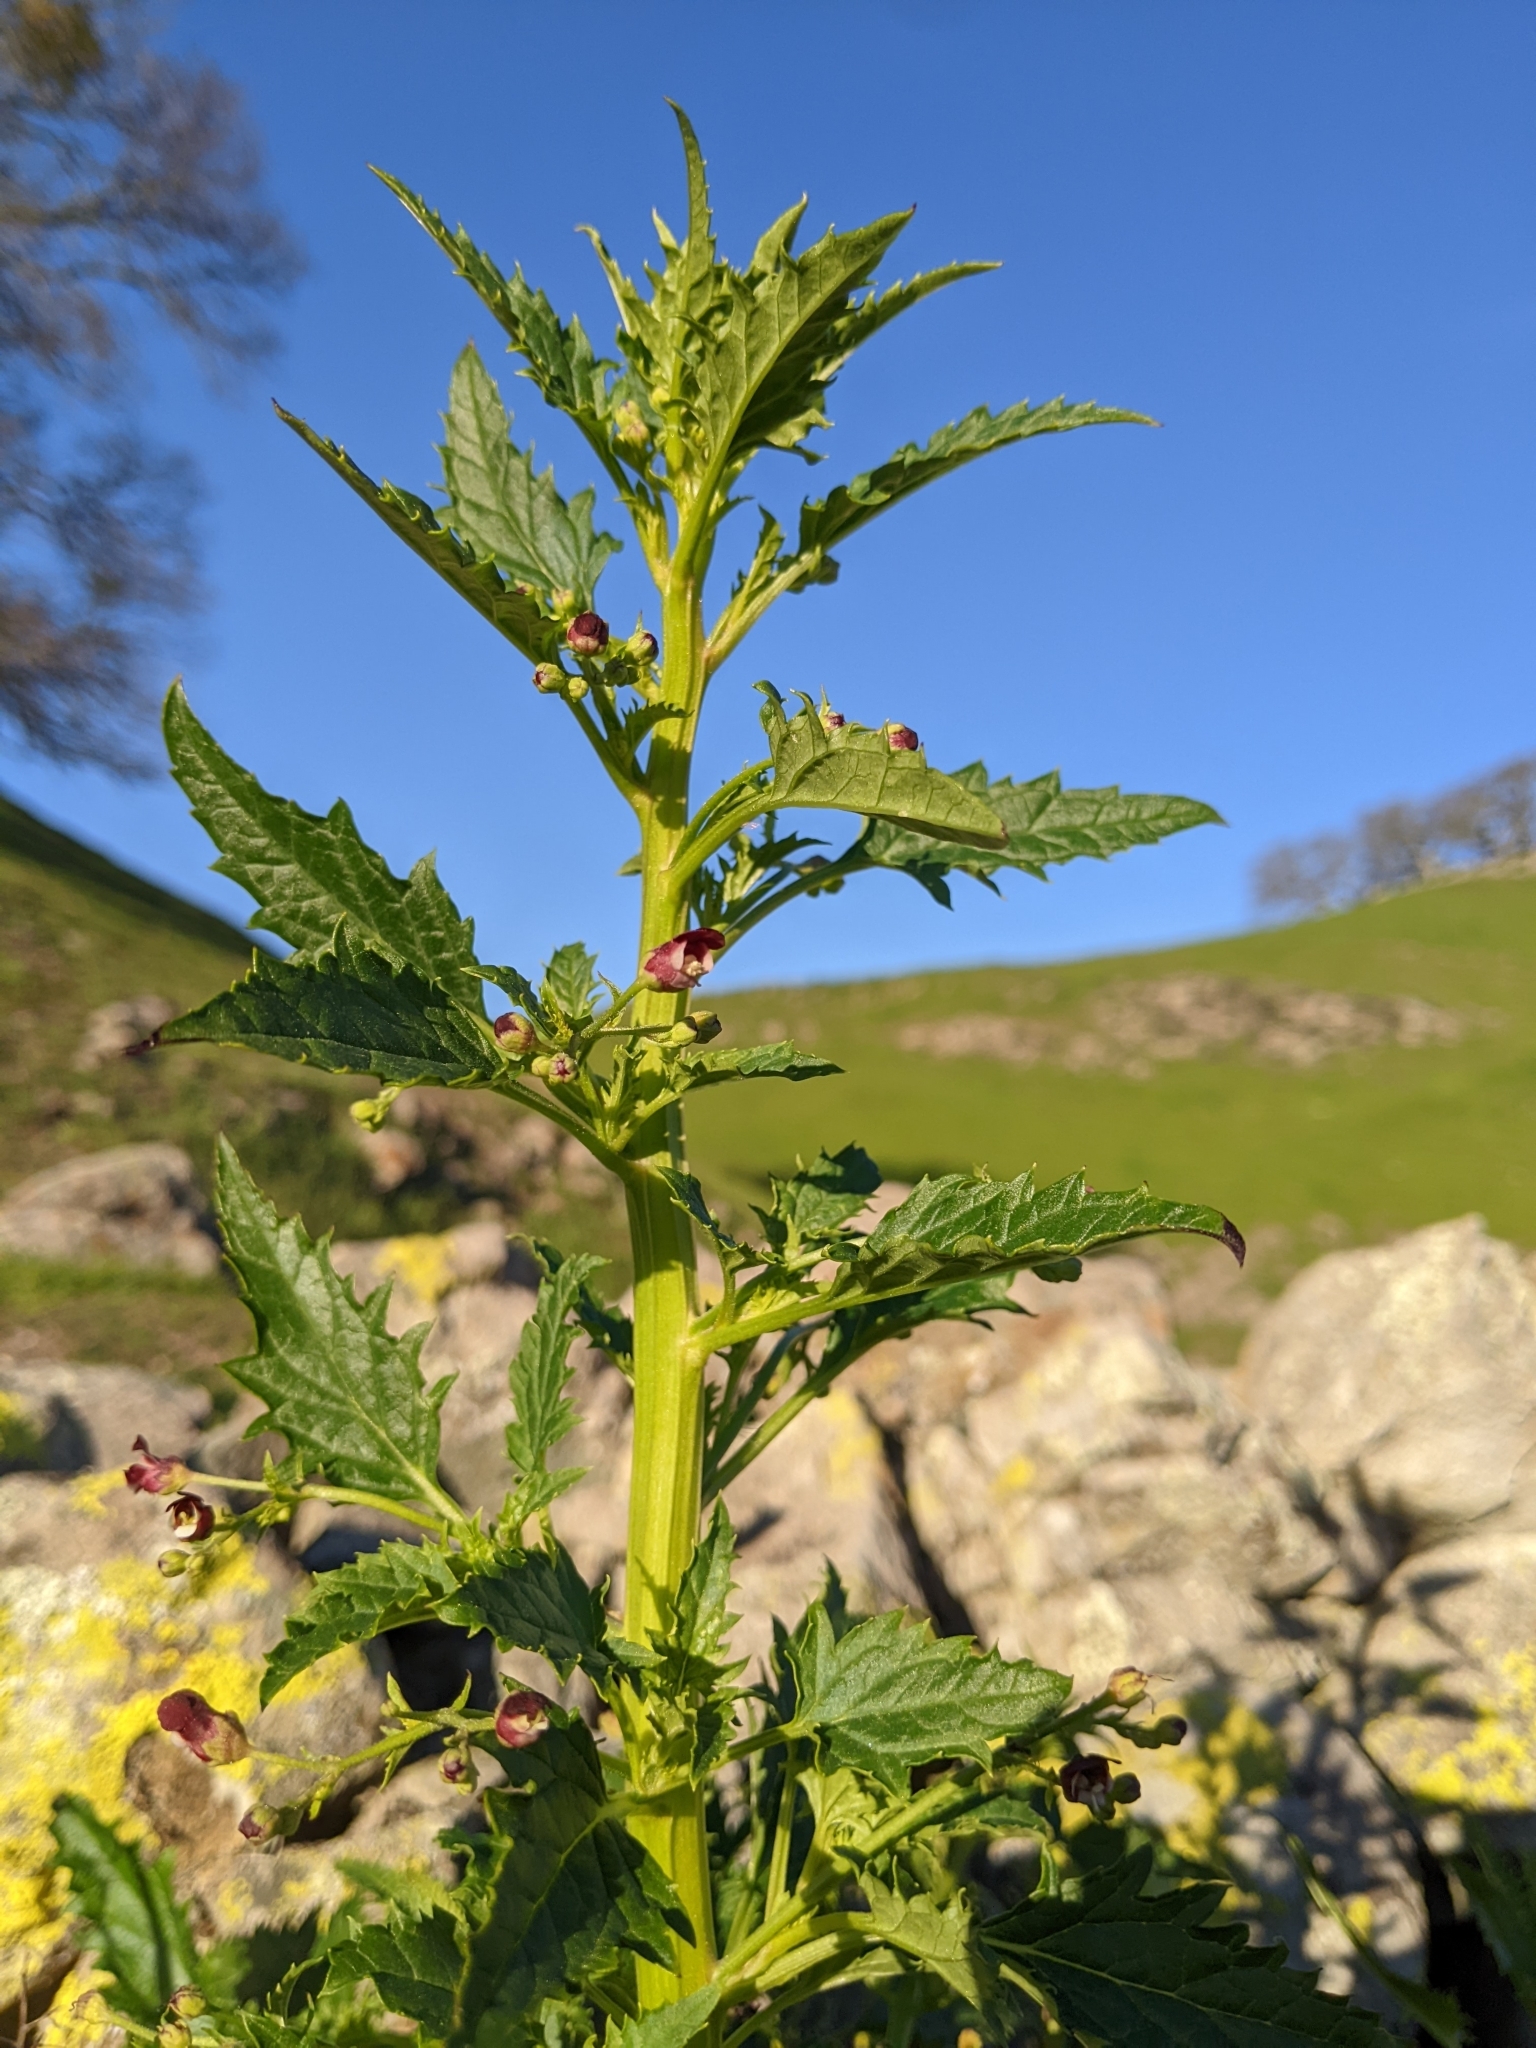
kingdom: Plantae
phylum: Tracheophyta
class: Magnoliopsida
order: Lamiales
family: Scrophulariaceae
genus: Scrophularia
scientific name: Scrophularia californica
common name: California figwort
